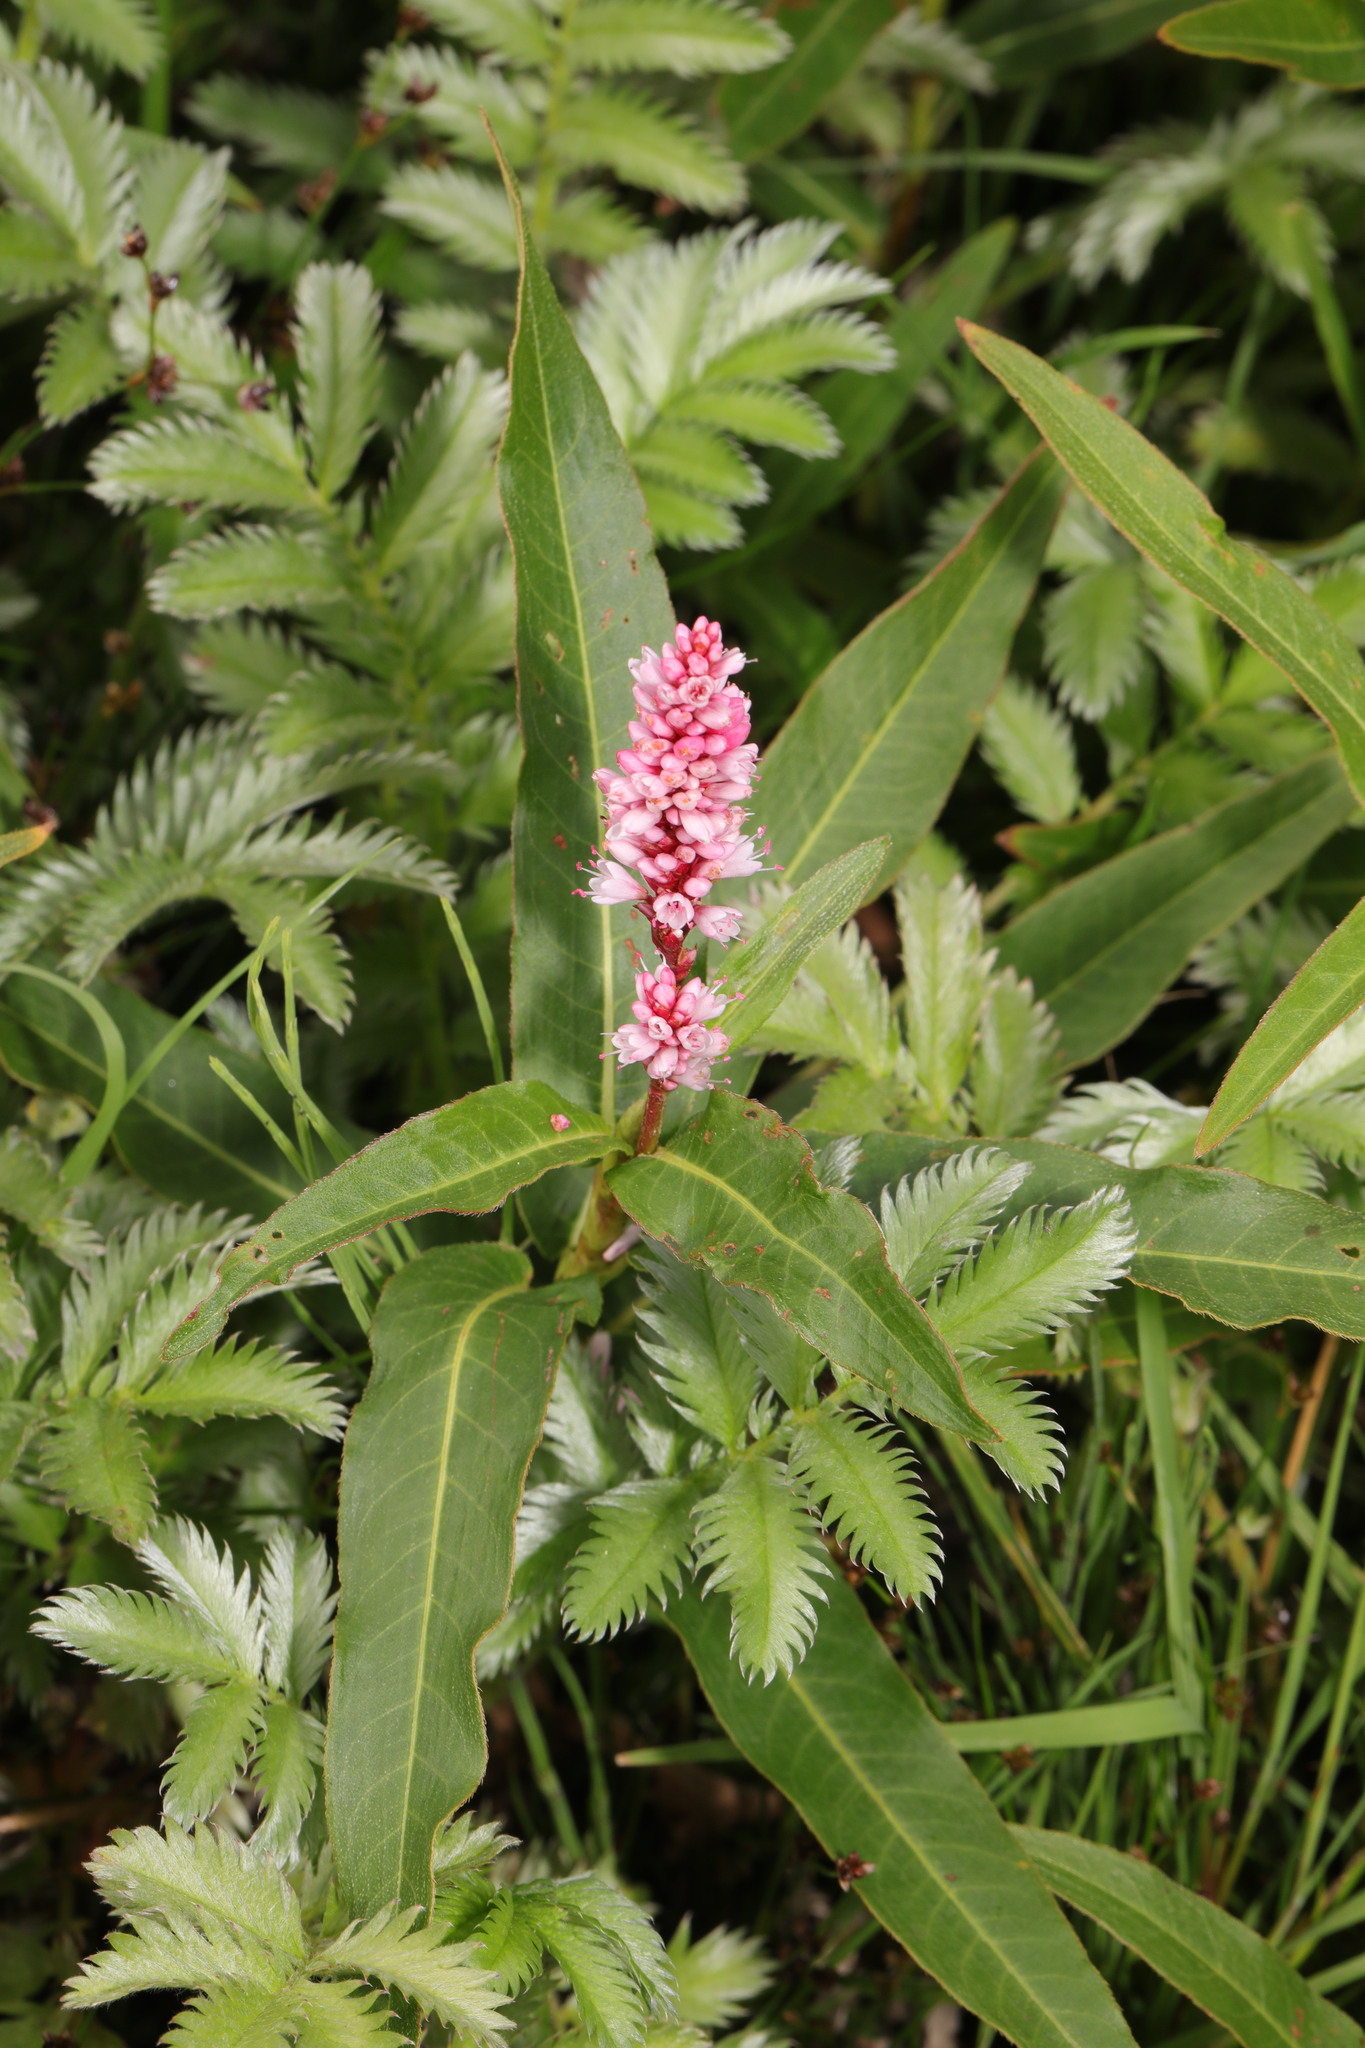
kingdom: Plantae
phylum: Tracheophyta
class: Magnoliopsida
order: Caryophyllales
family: Polygonaceae
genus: Persicaria
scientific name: Persicaria amphibia
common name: Amphibious bistort
